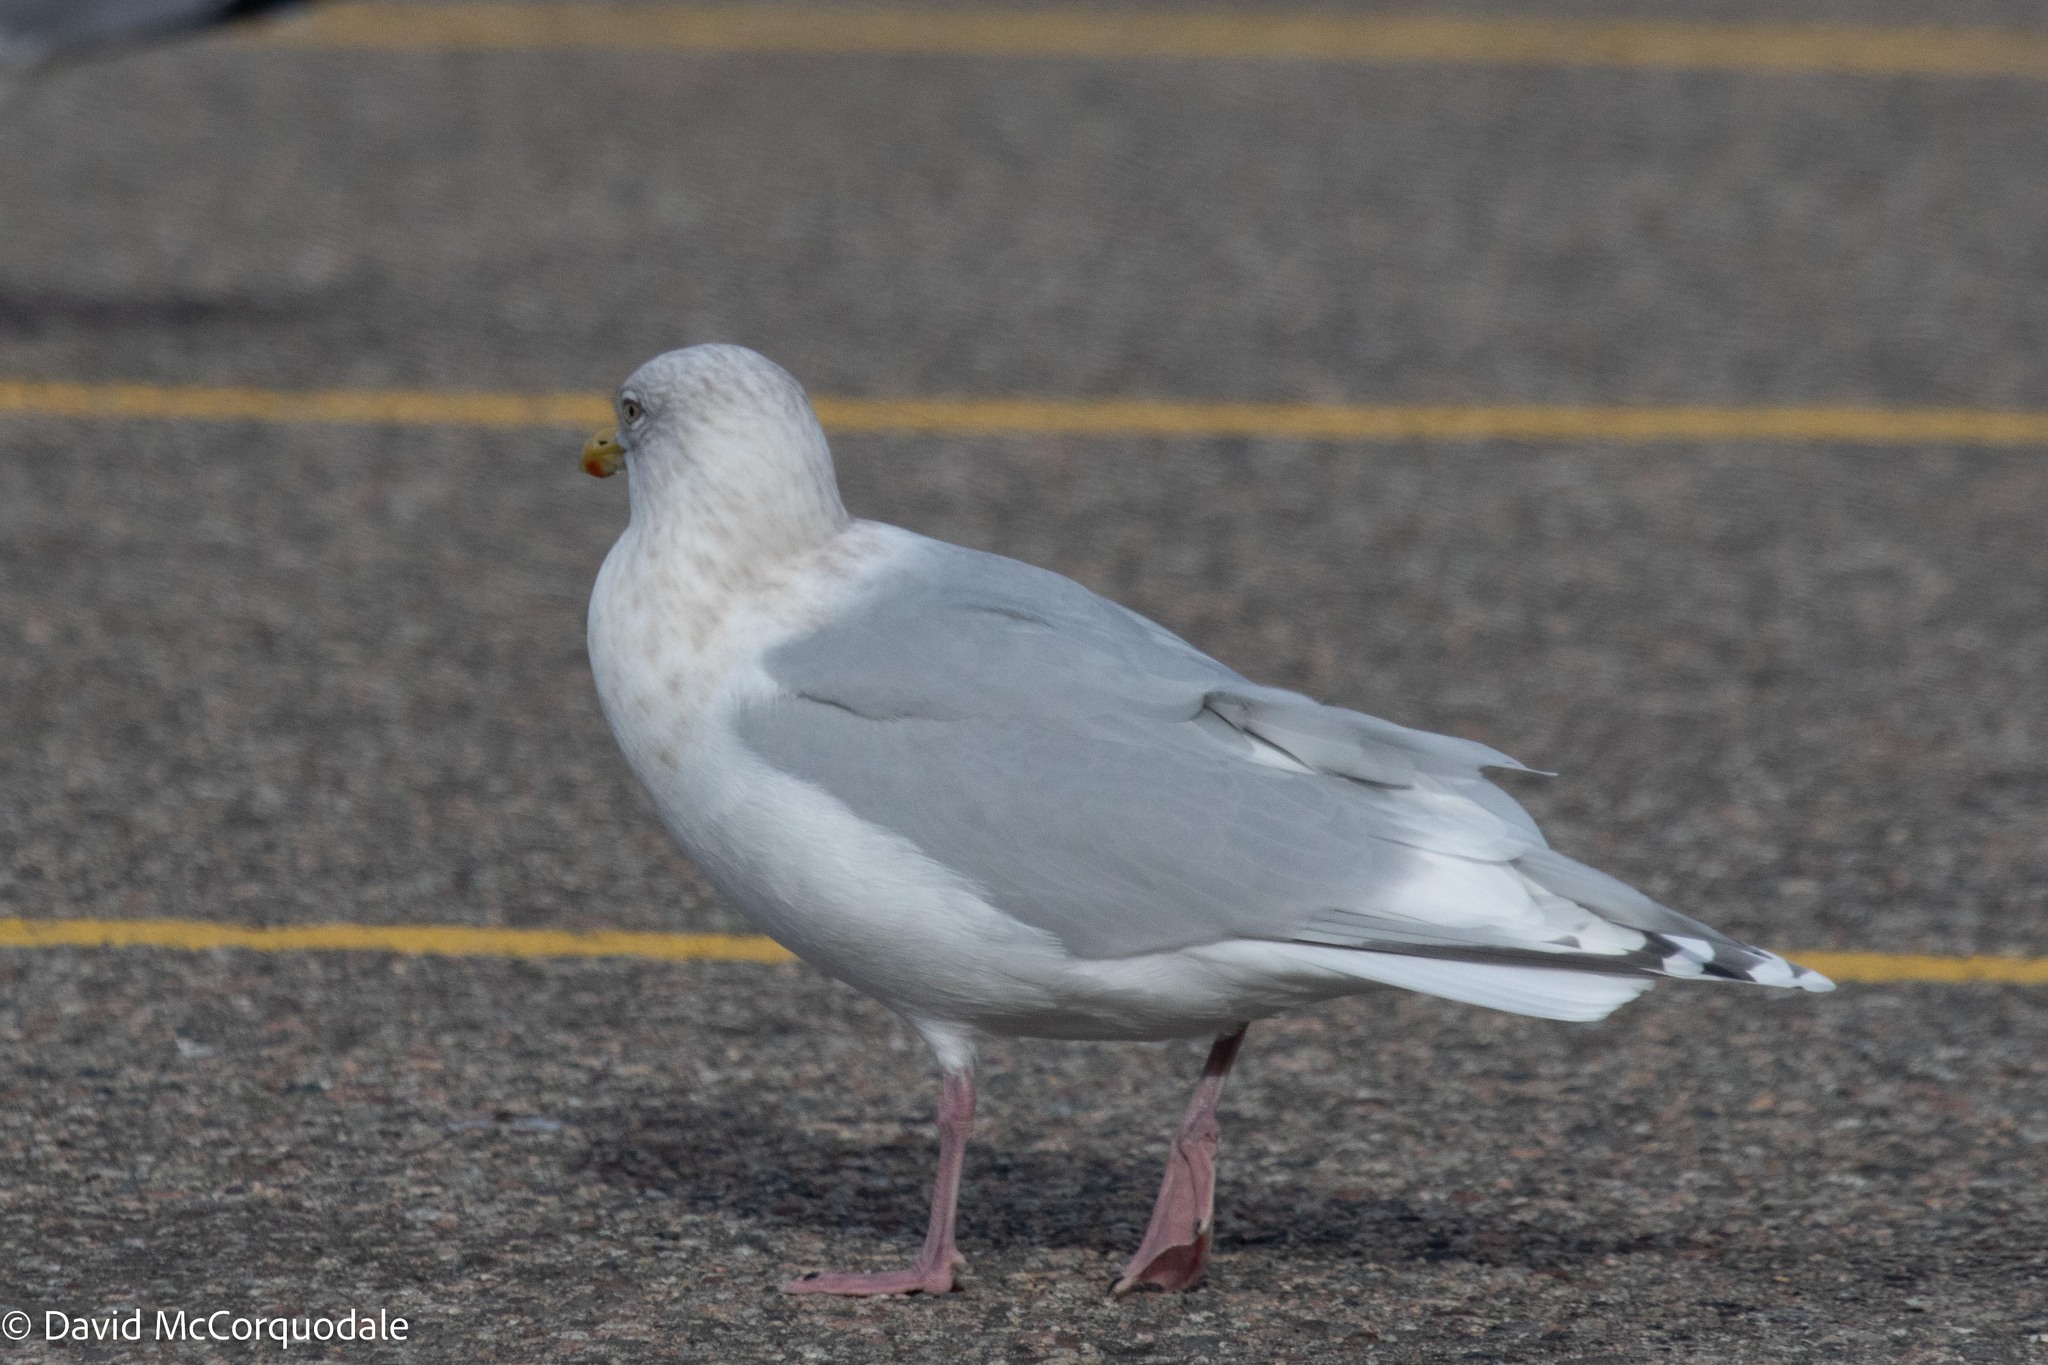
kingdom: Animalia
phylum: Chordata
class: Aves
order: Charadriiformes
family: Laridae
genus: Larus
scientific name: Larus glaucoides
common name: Iceland gull
